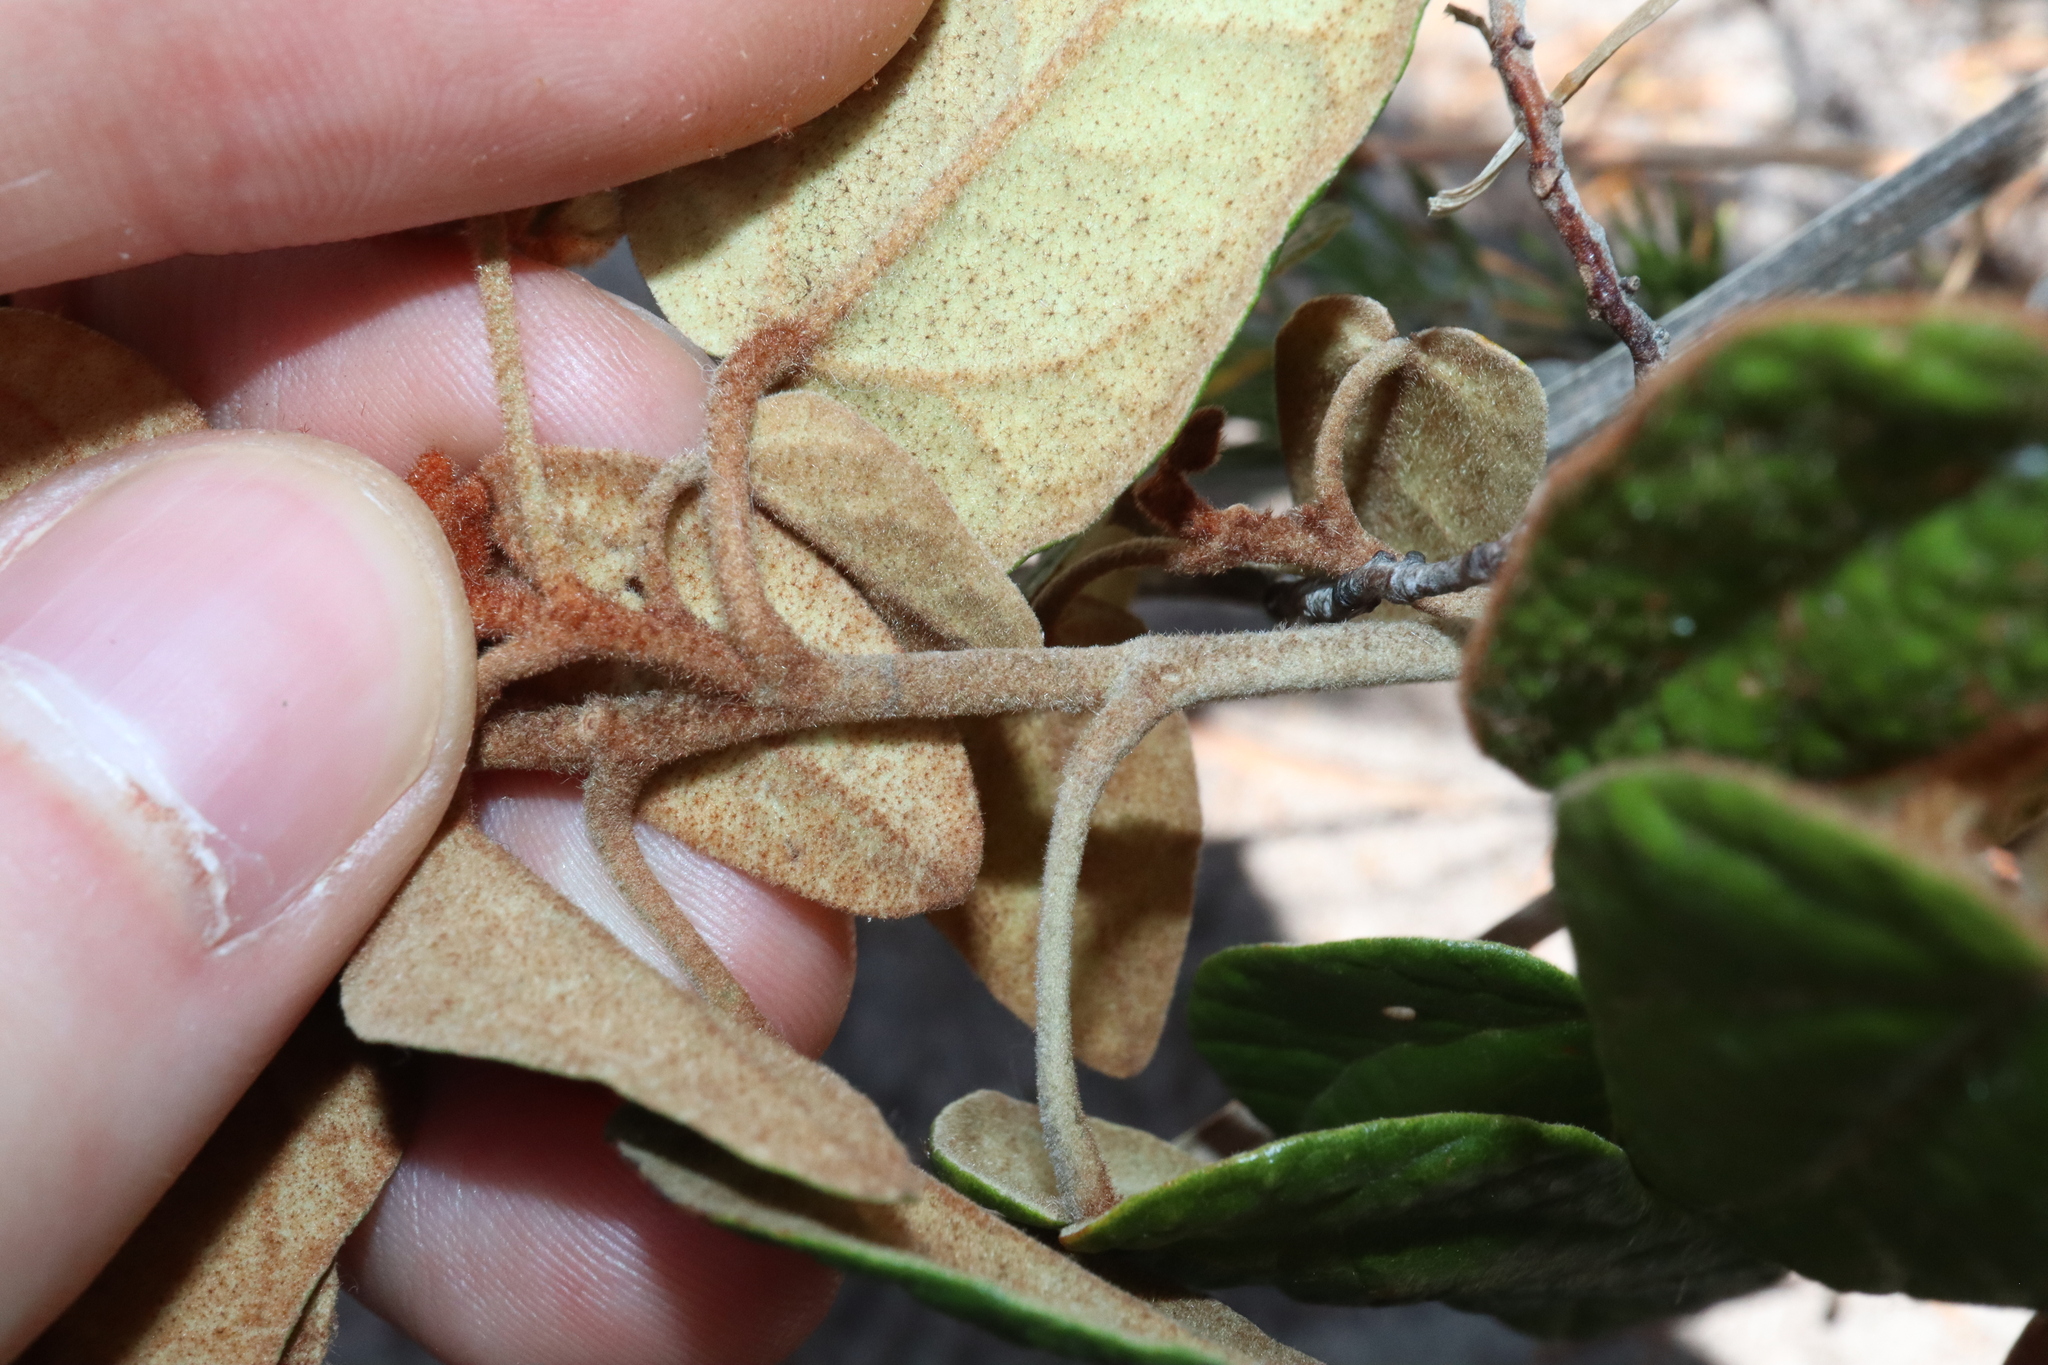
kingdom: Plantae
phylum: Tracheophyta
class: Magnoliopsida
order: Malvales
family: Malvaceae
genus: Lasiopetalum
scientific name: Lasiopetalum quinquenervium
